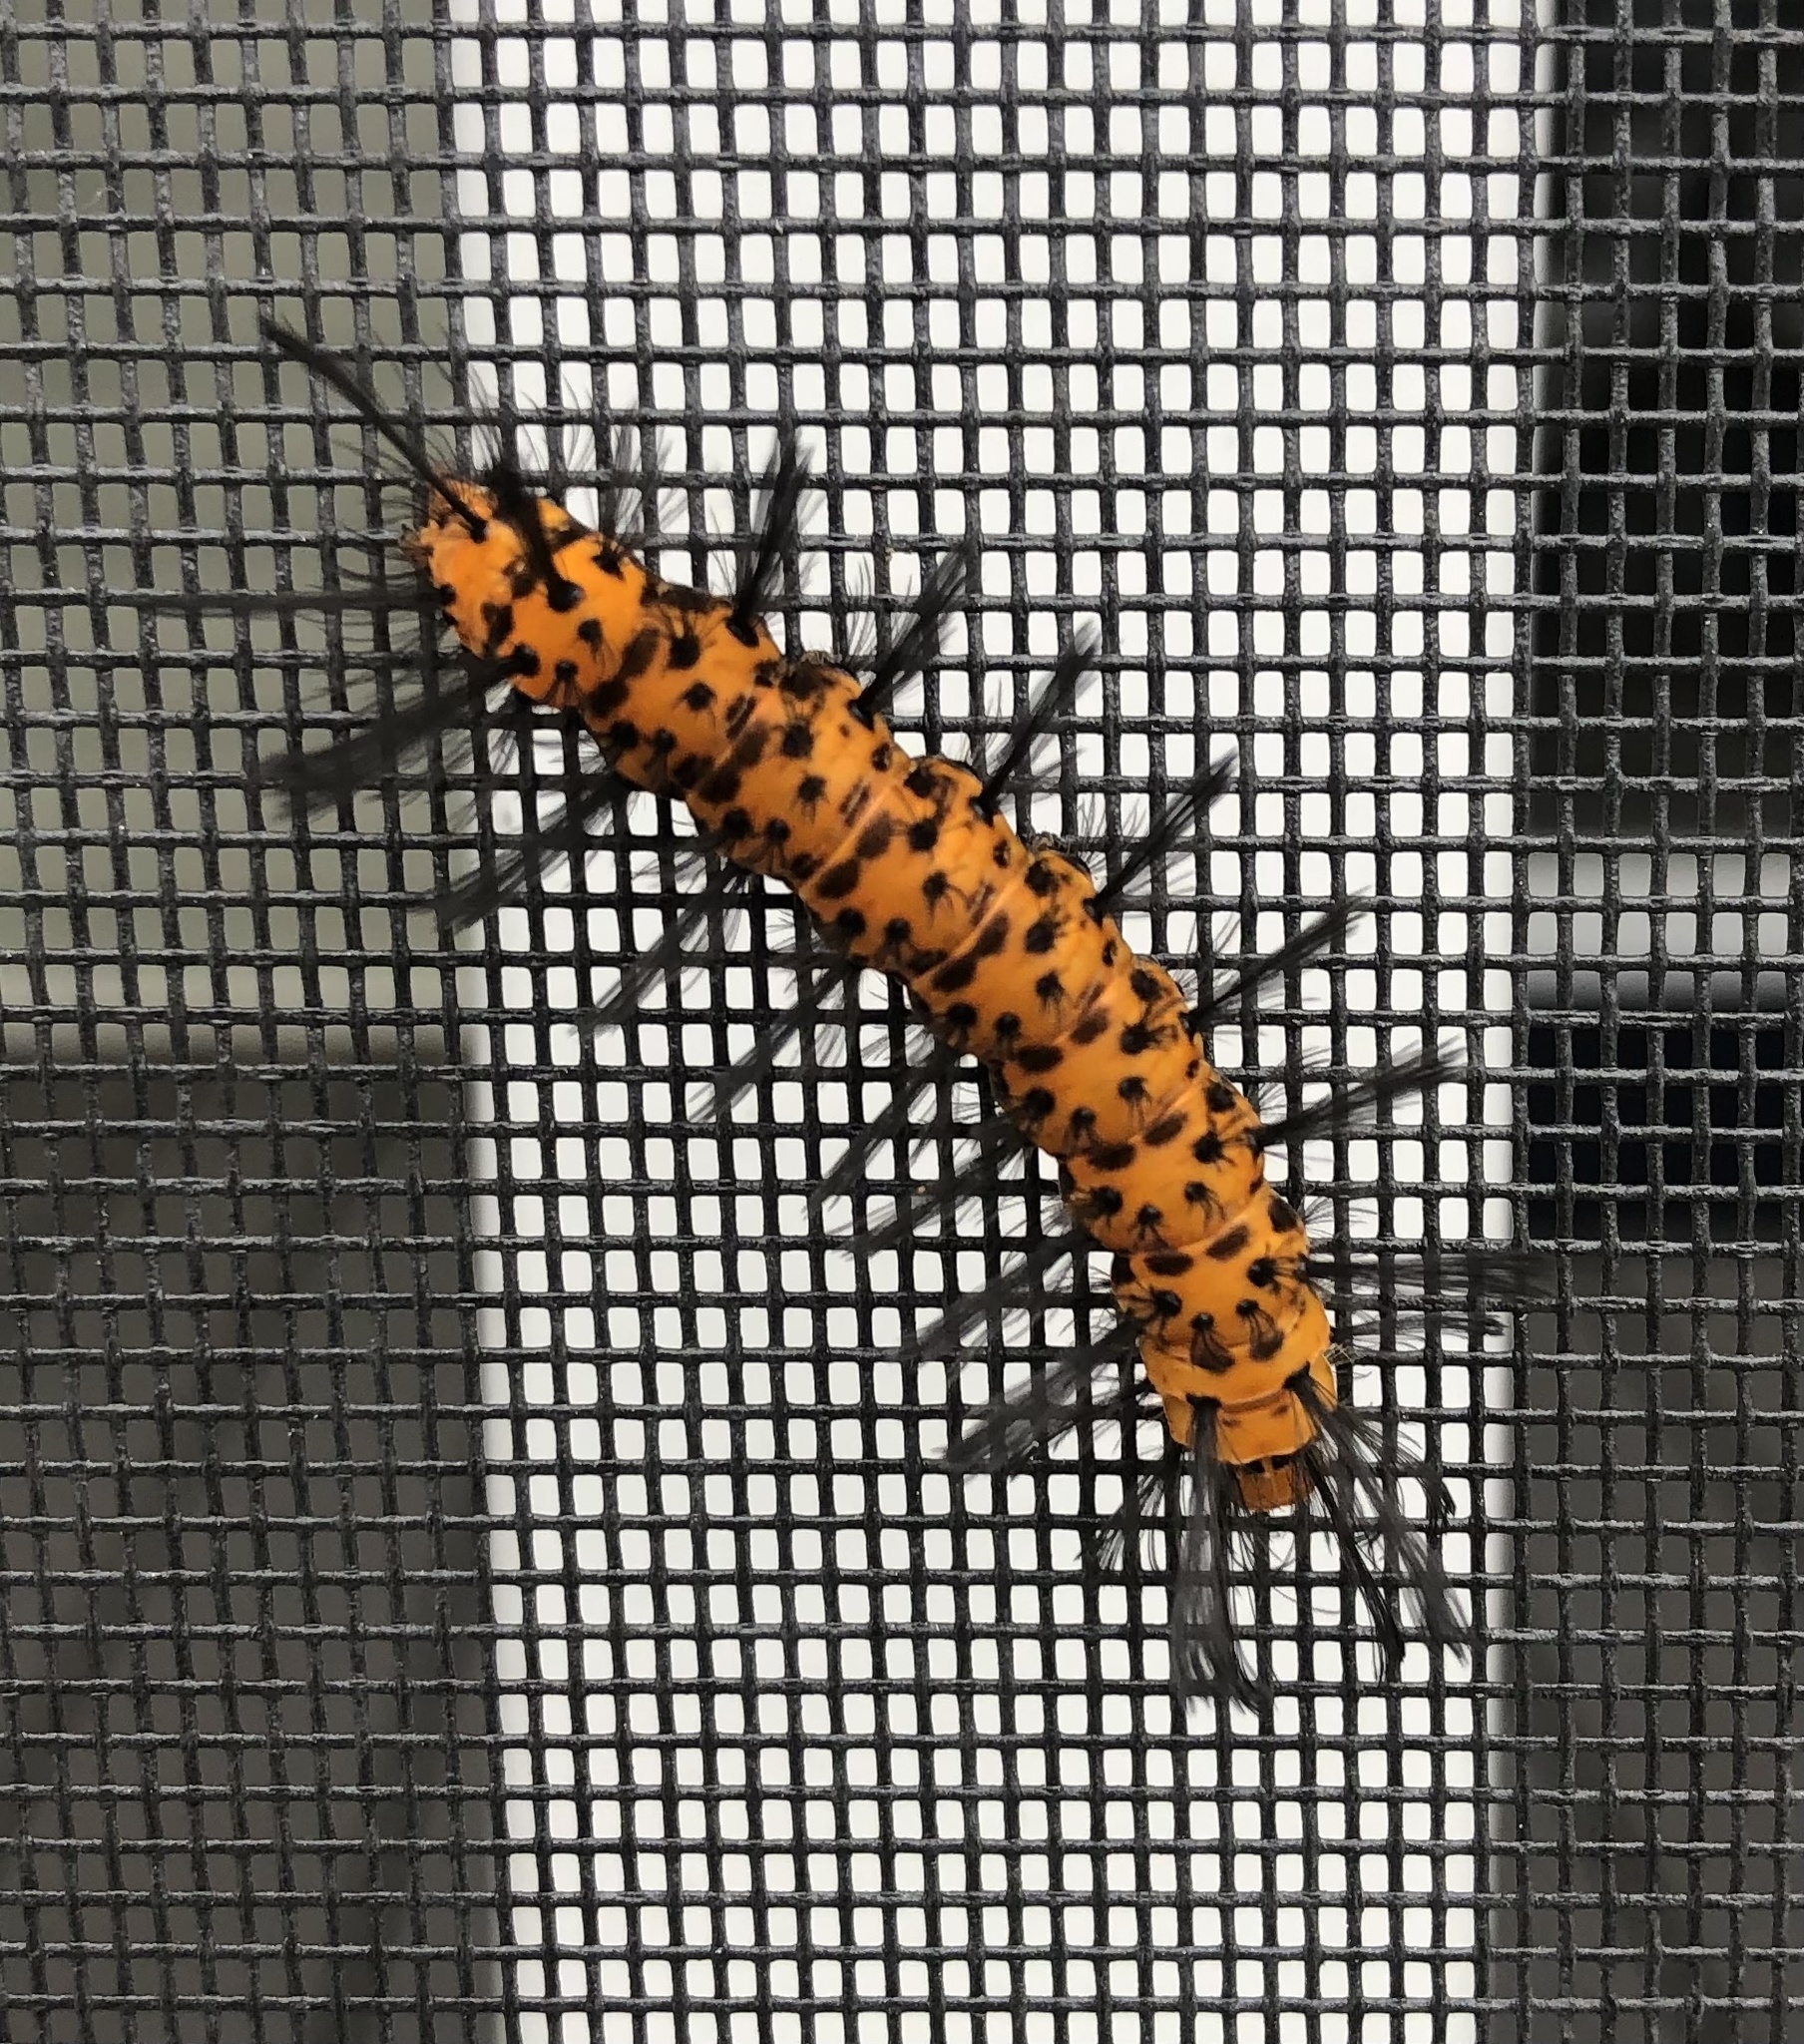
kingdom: Animalia
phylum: Arthropoda
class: Insecta
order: Lepidoptera
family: Erebidae
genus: Syntomeida
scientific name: Syntomeida epilais
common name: Polka-dot wasp moth
